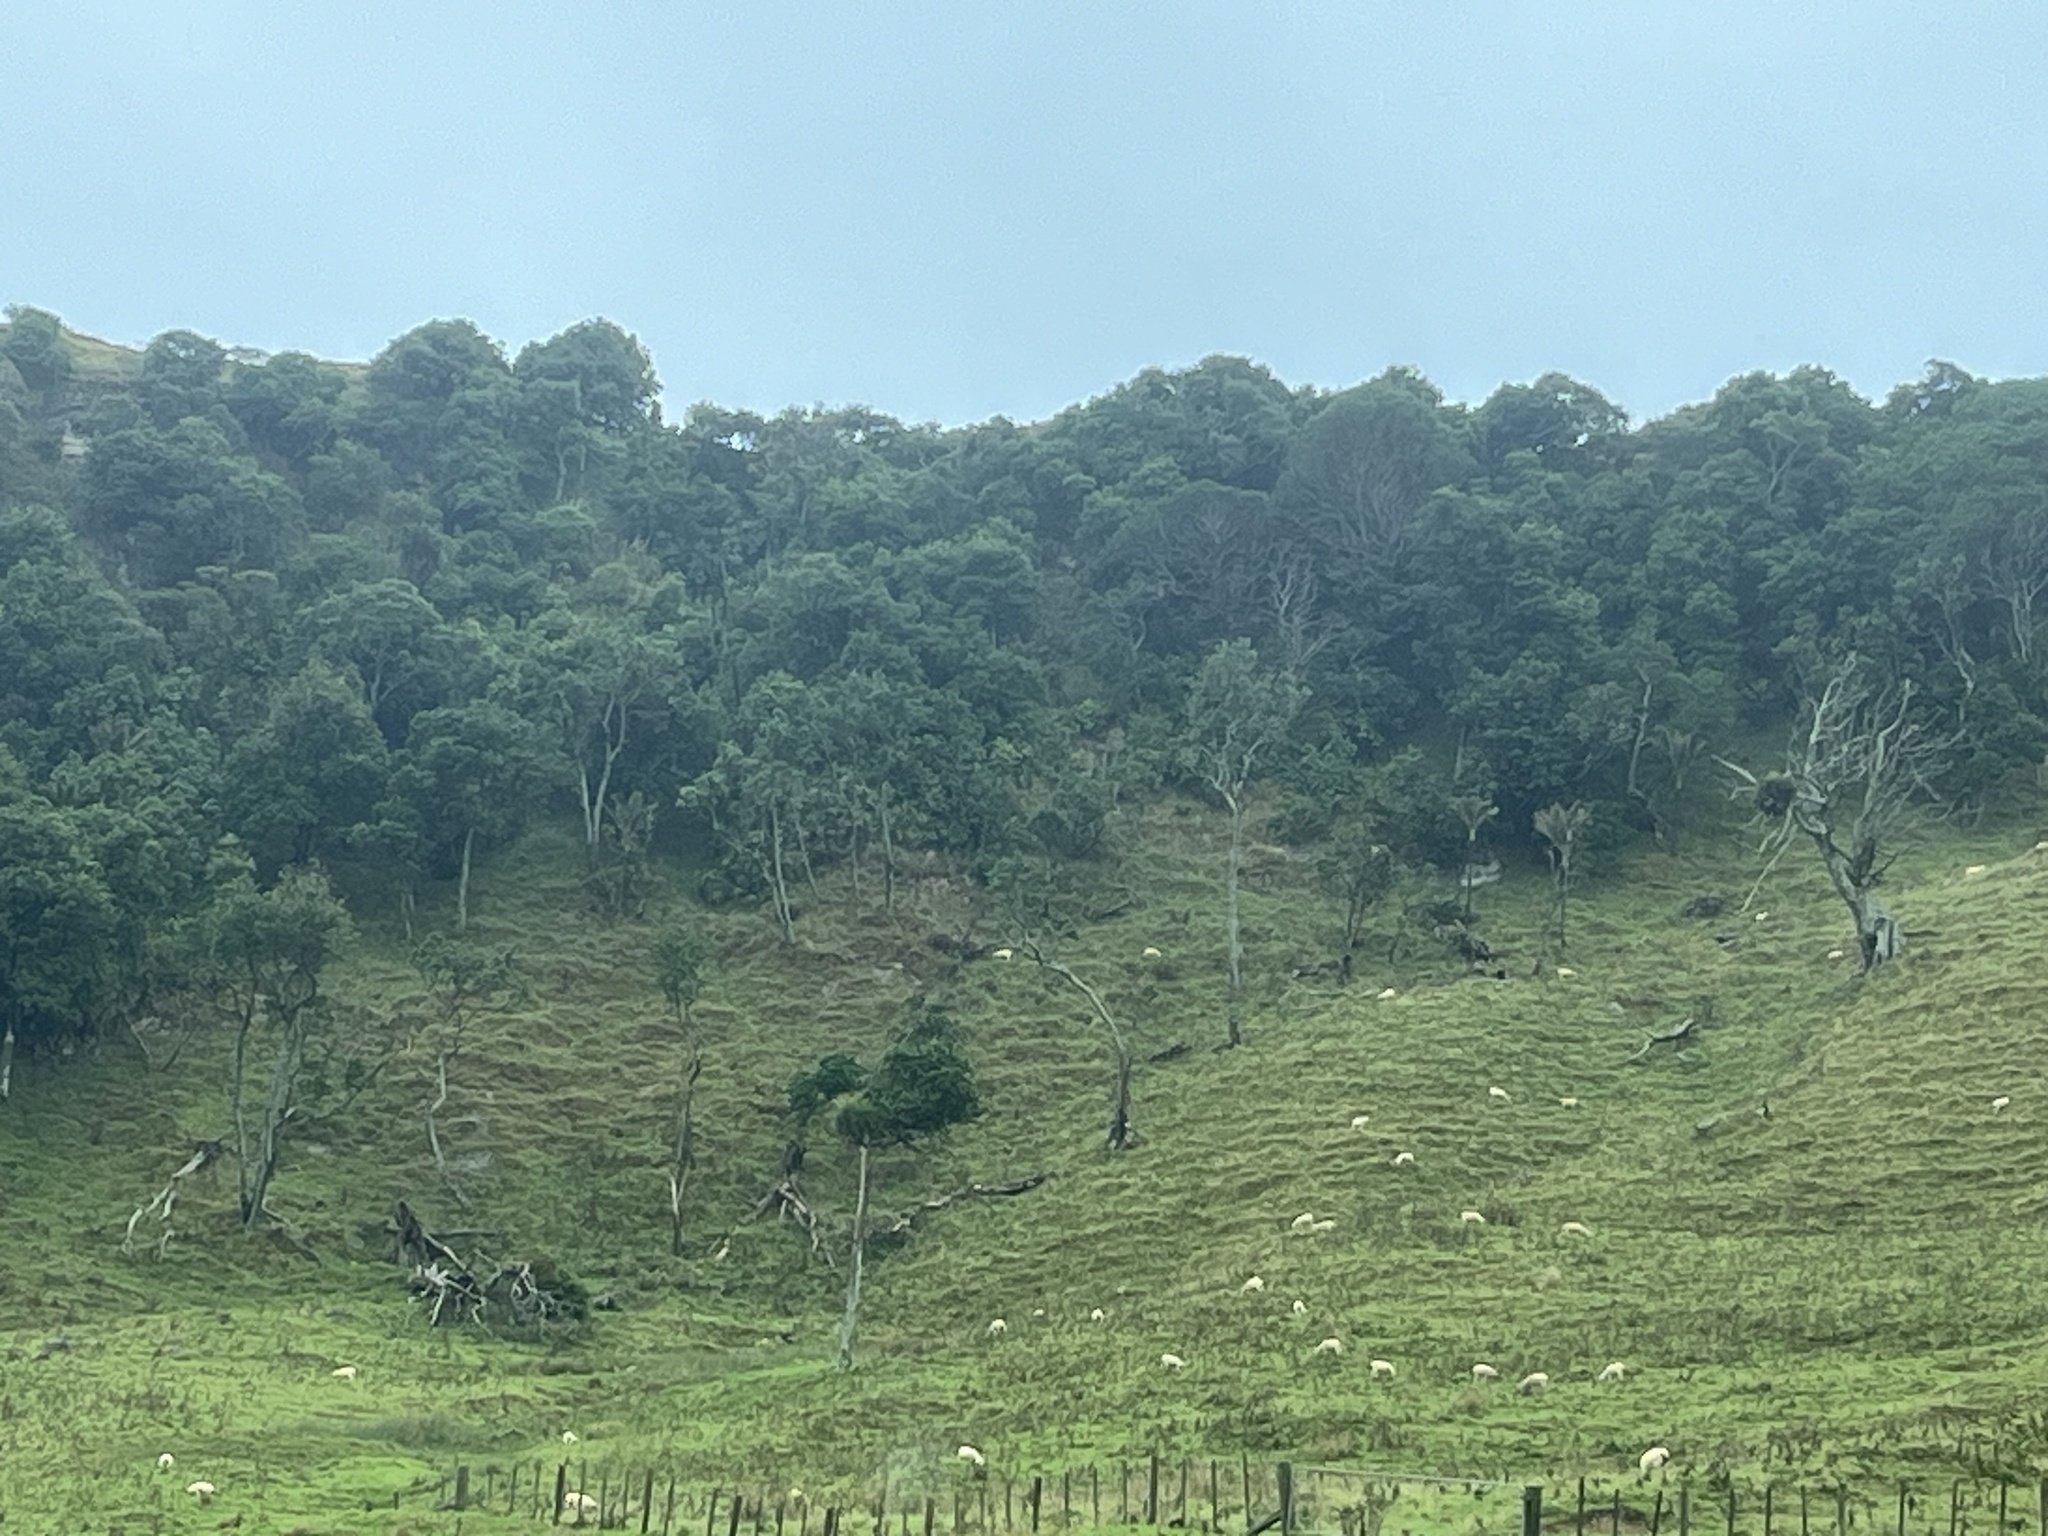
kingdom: Plantae
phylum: Tracheophyta
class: Liliopsida
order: Arecales
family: Arecaceae
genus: Rhopalostylis
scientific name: Rhopalostylis sapida
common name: Feather-duster palm
